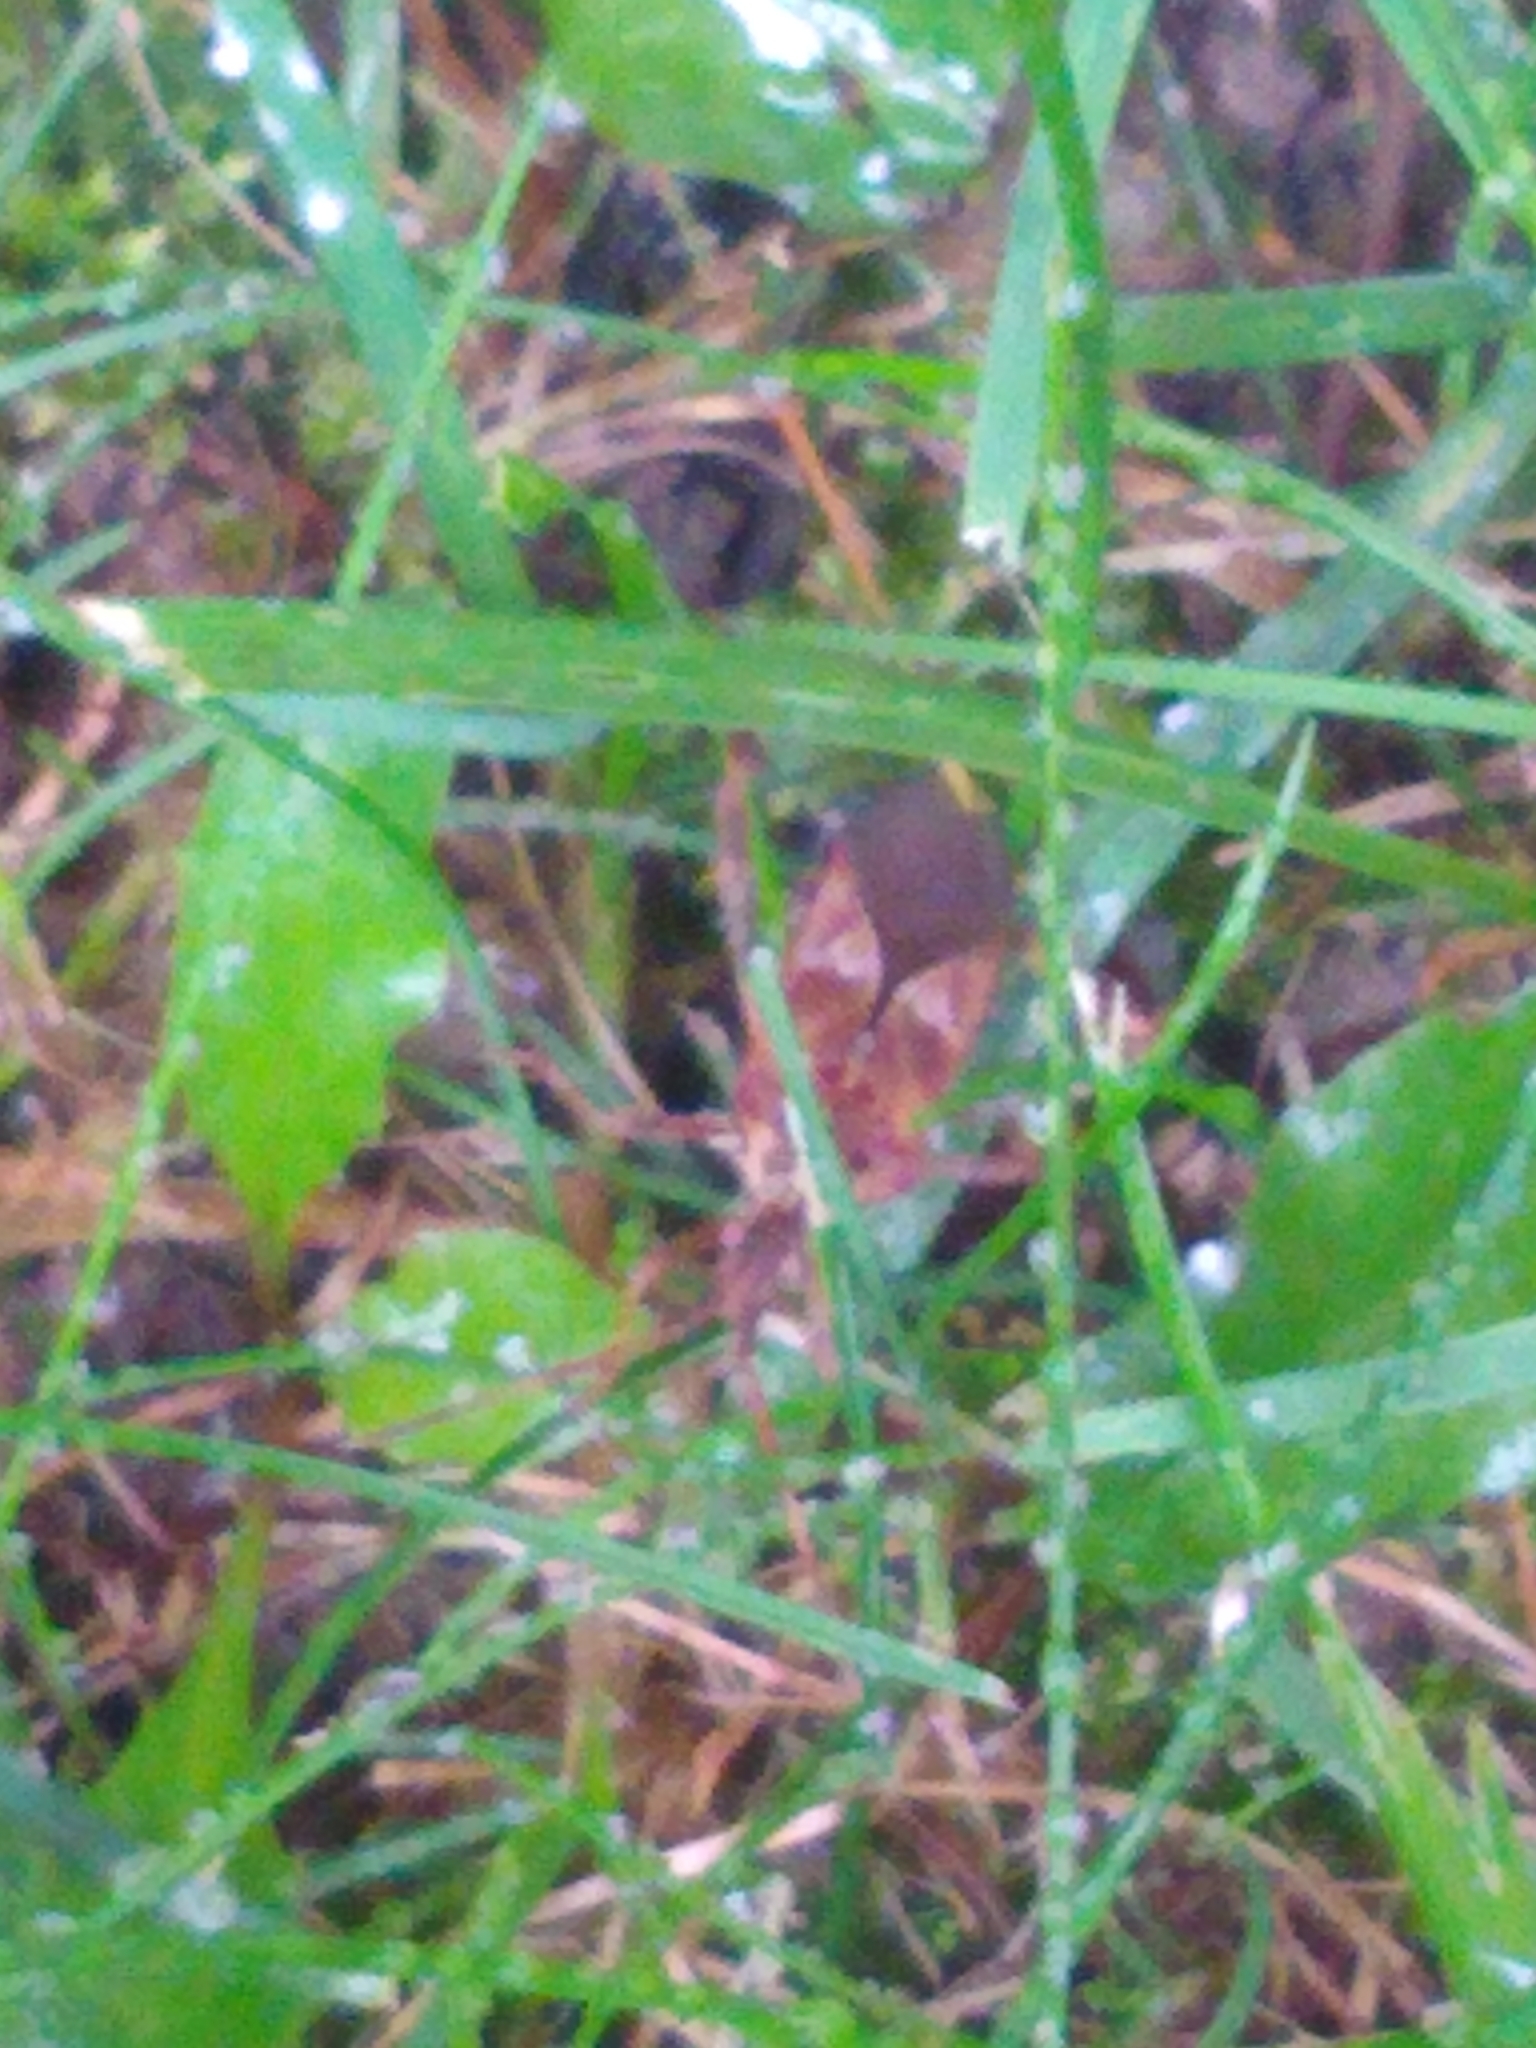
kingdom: Animalia
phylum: Arthropoda
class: Insecta
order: Hemiptera
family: Coreidae
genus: Leptoglossus
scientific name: Leptoglossus occidentalis
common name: Western conifer-seed bug
